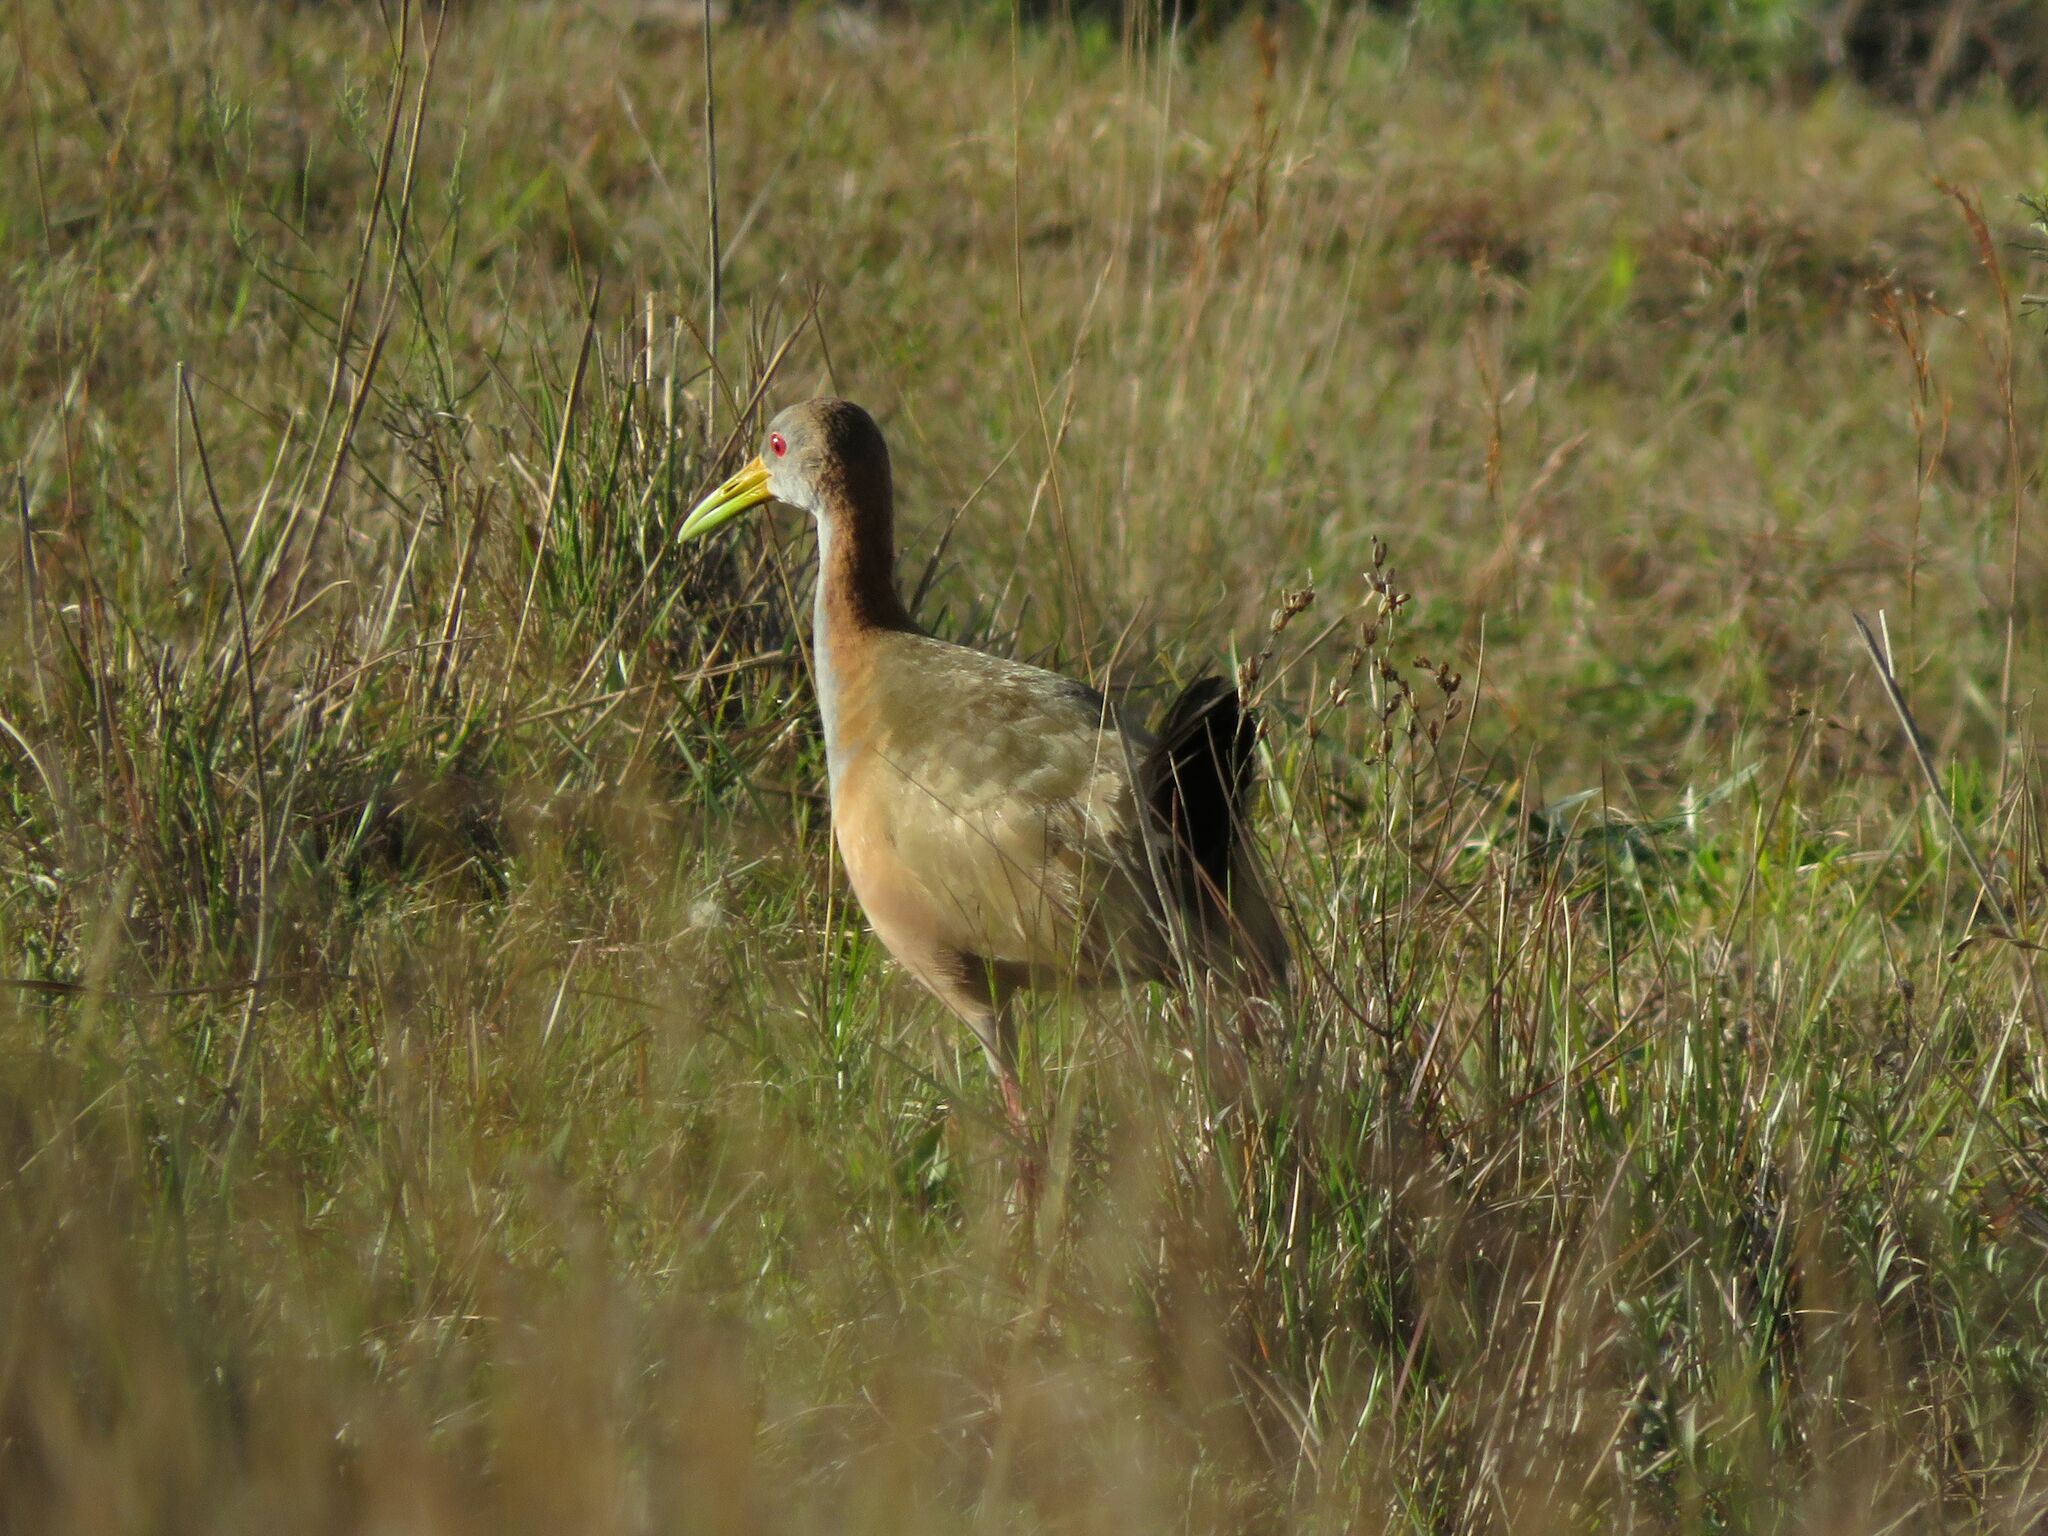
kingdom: Animalia
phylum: Chordata
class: Aves
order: Gruiformes
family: Rallidae
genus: Aramides
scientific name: Aramides ypecaha
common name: Giant wood rail
